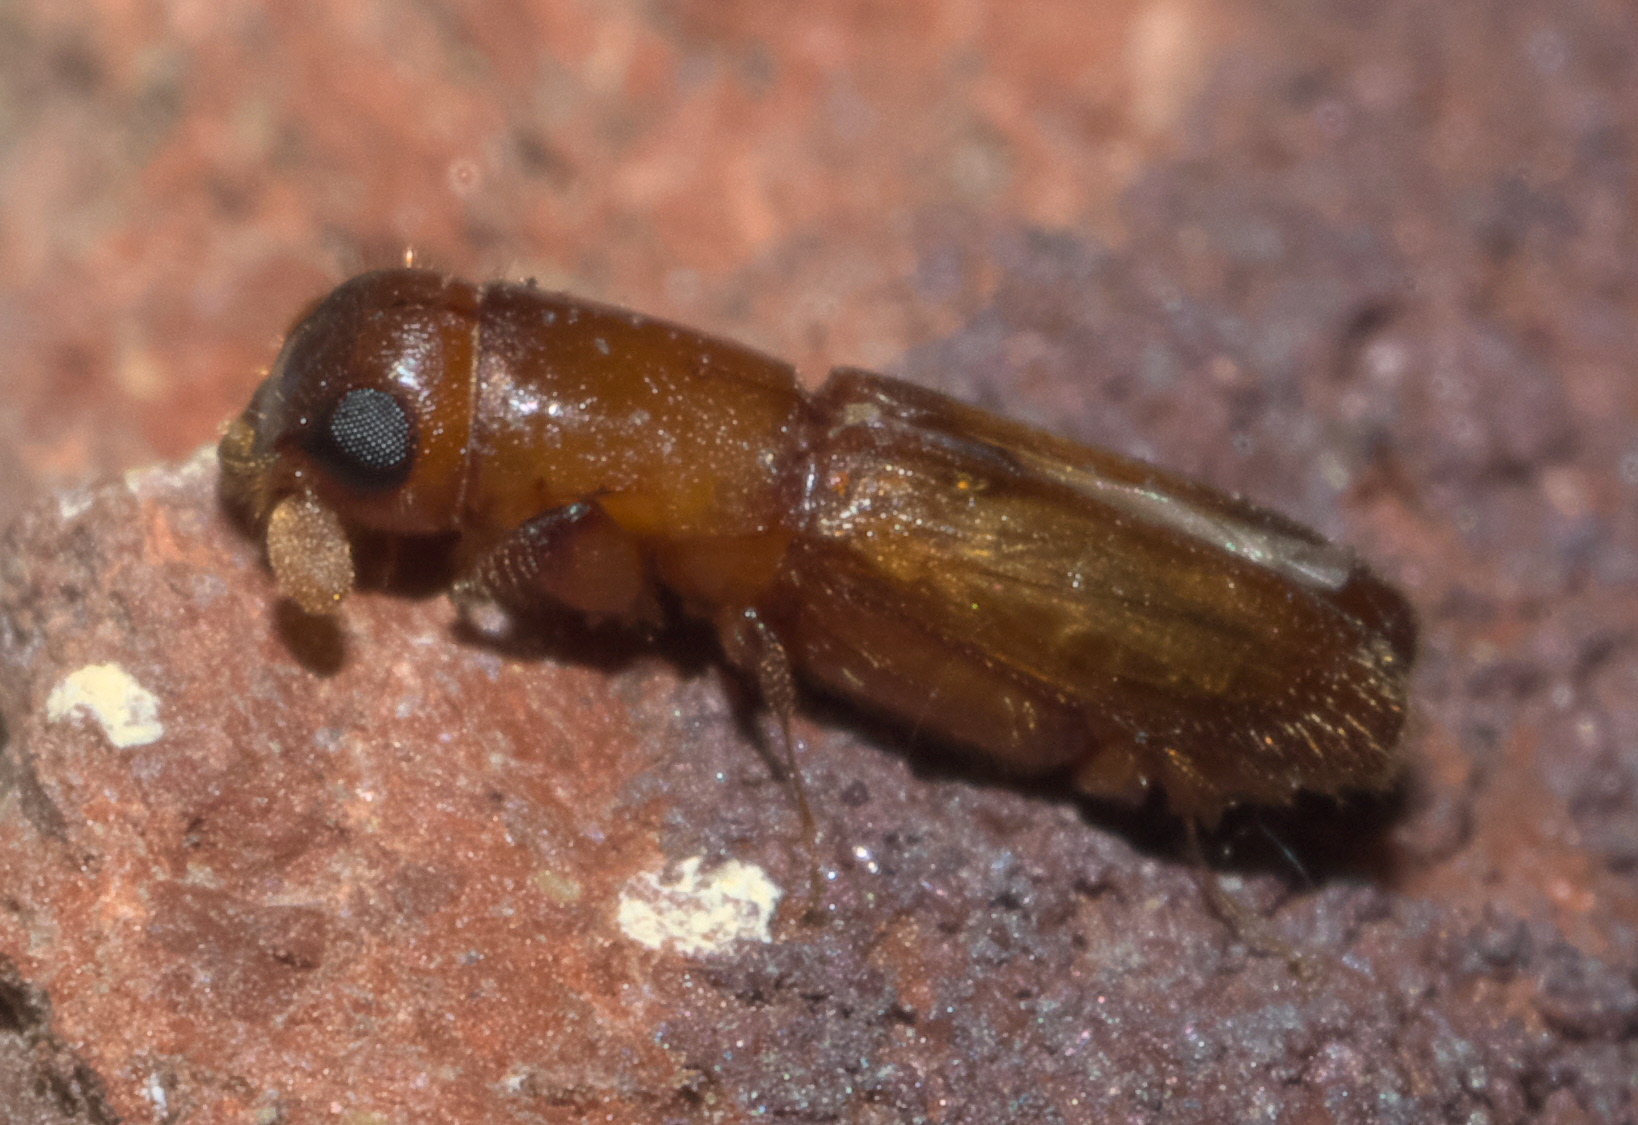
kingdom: Animalia
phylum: Arthropoda
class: Insecta
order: Coleoptera
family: Curculionidae
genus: Euplatypus
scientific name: Euplatypus compositus
